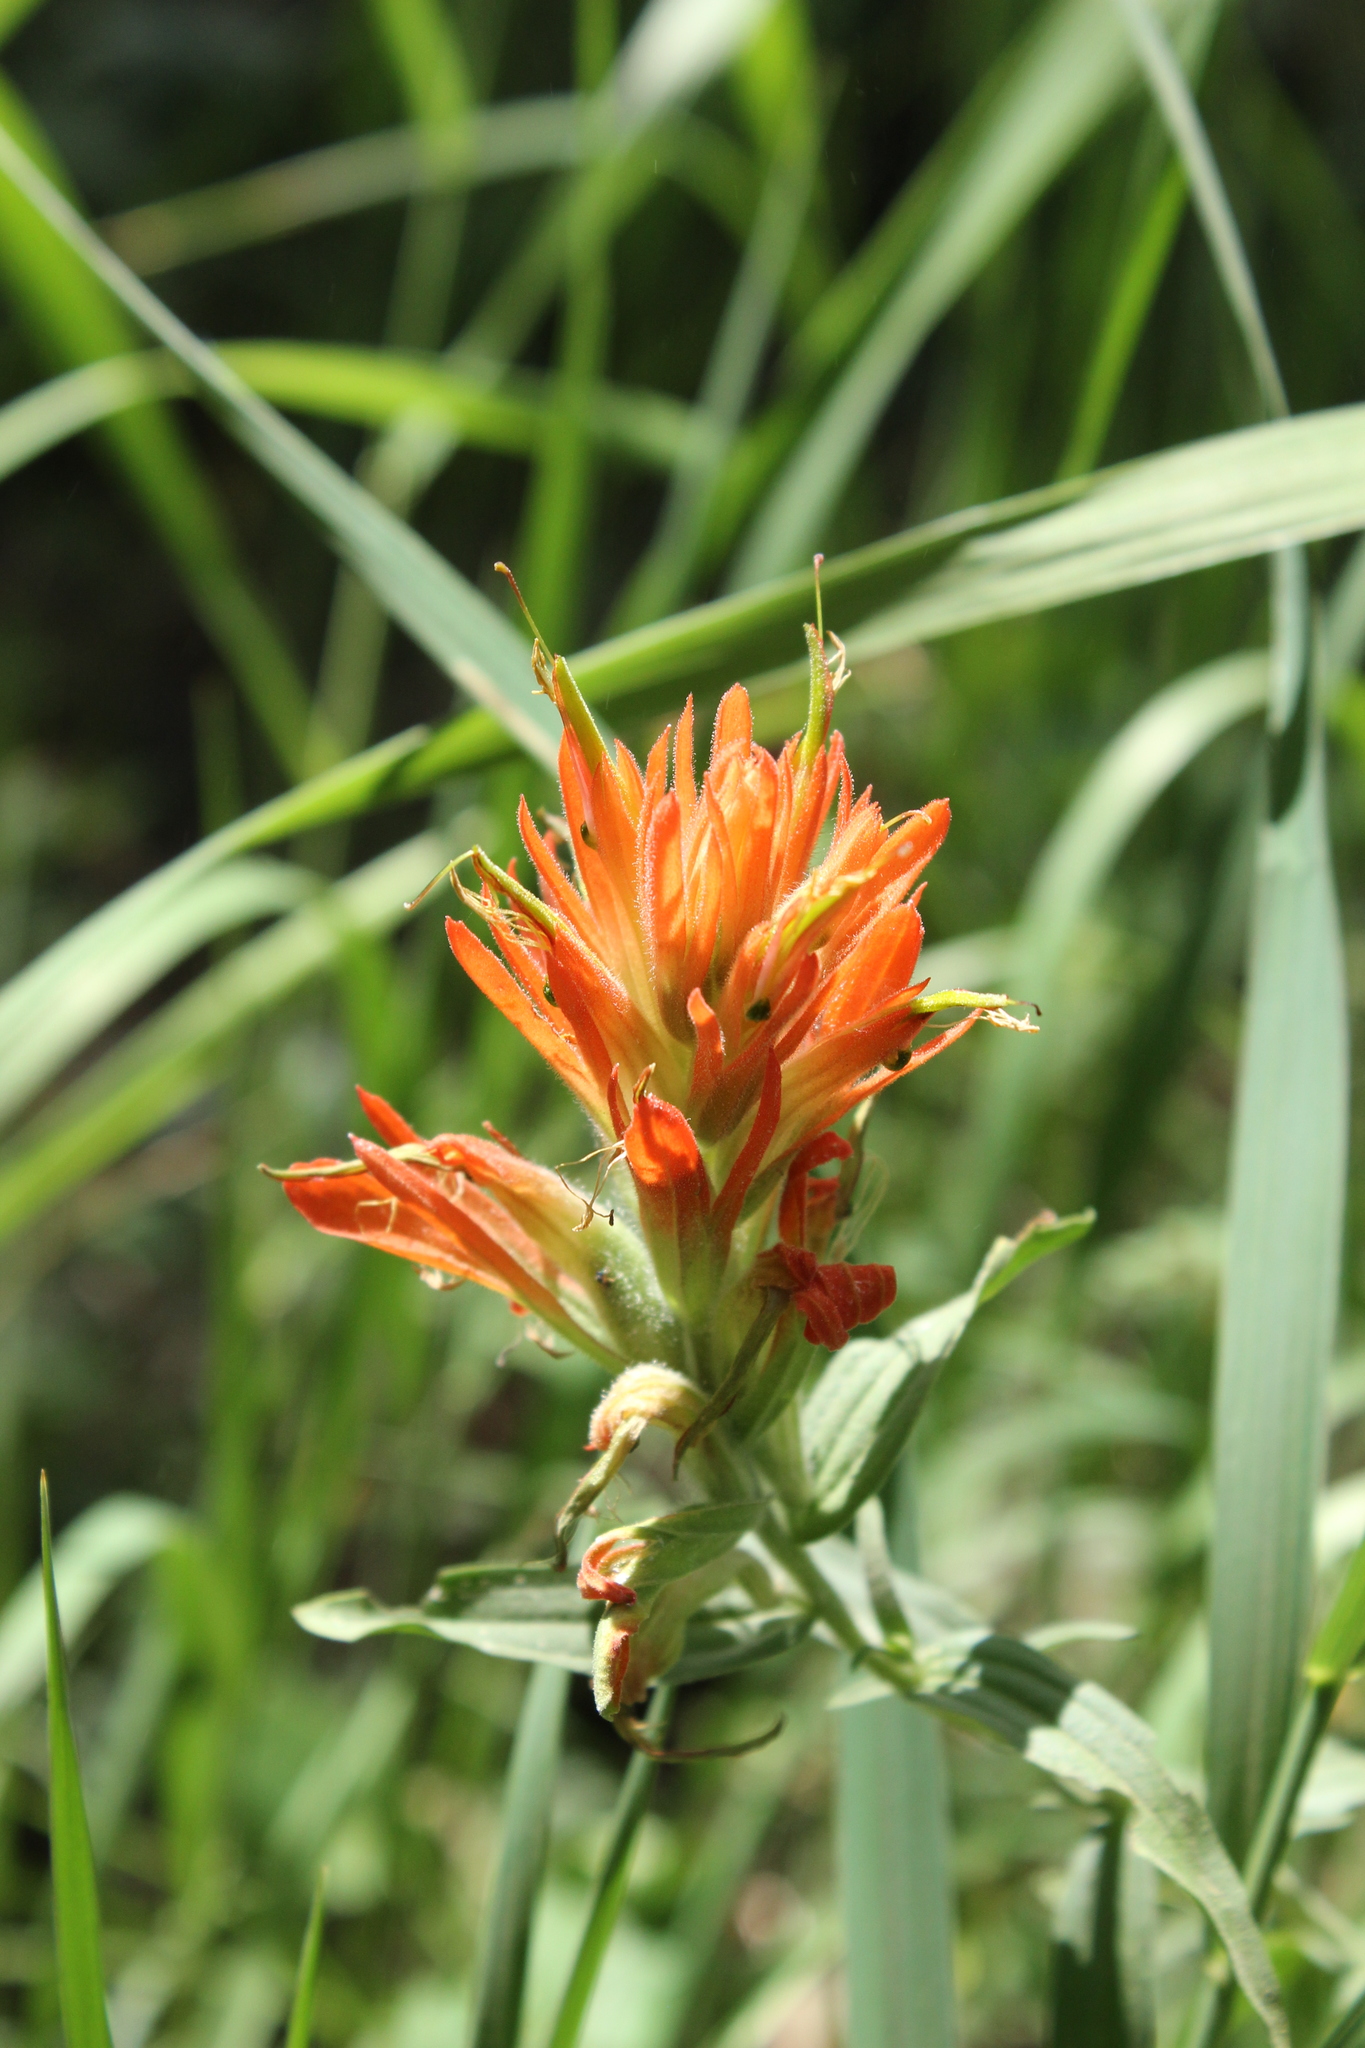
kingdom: Plantae
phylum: Tracheophyta
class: Magnoliopsida
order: Lamiales
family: Orobanchaceae
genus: Castilleja
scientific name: Castilleja miniata
